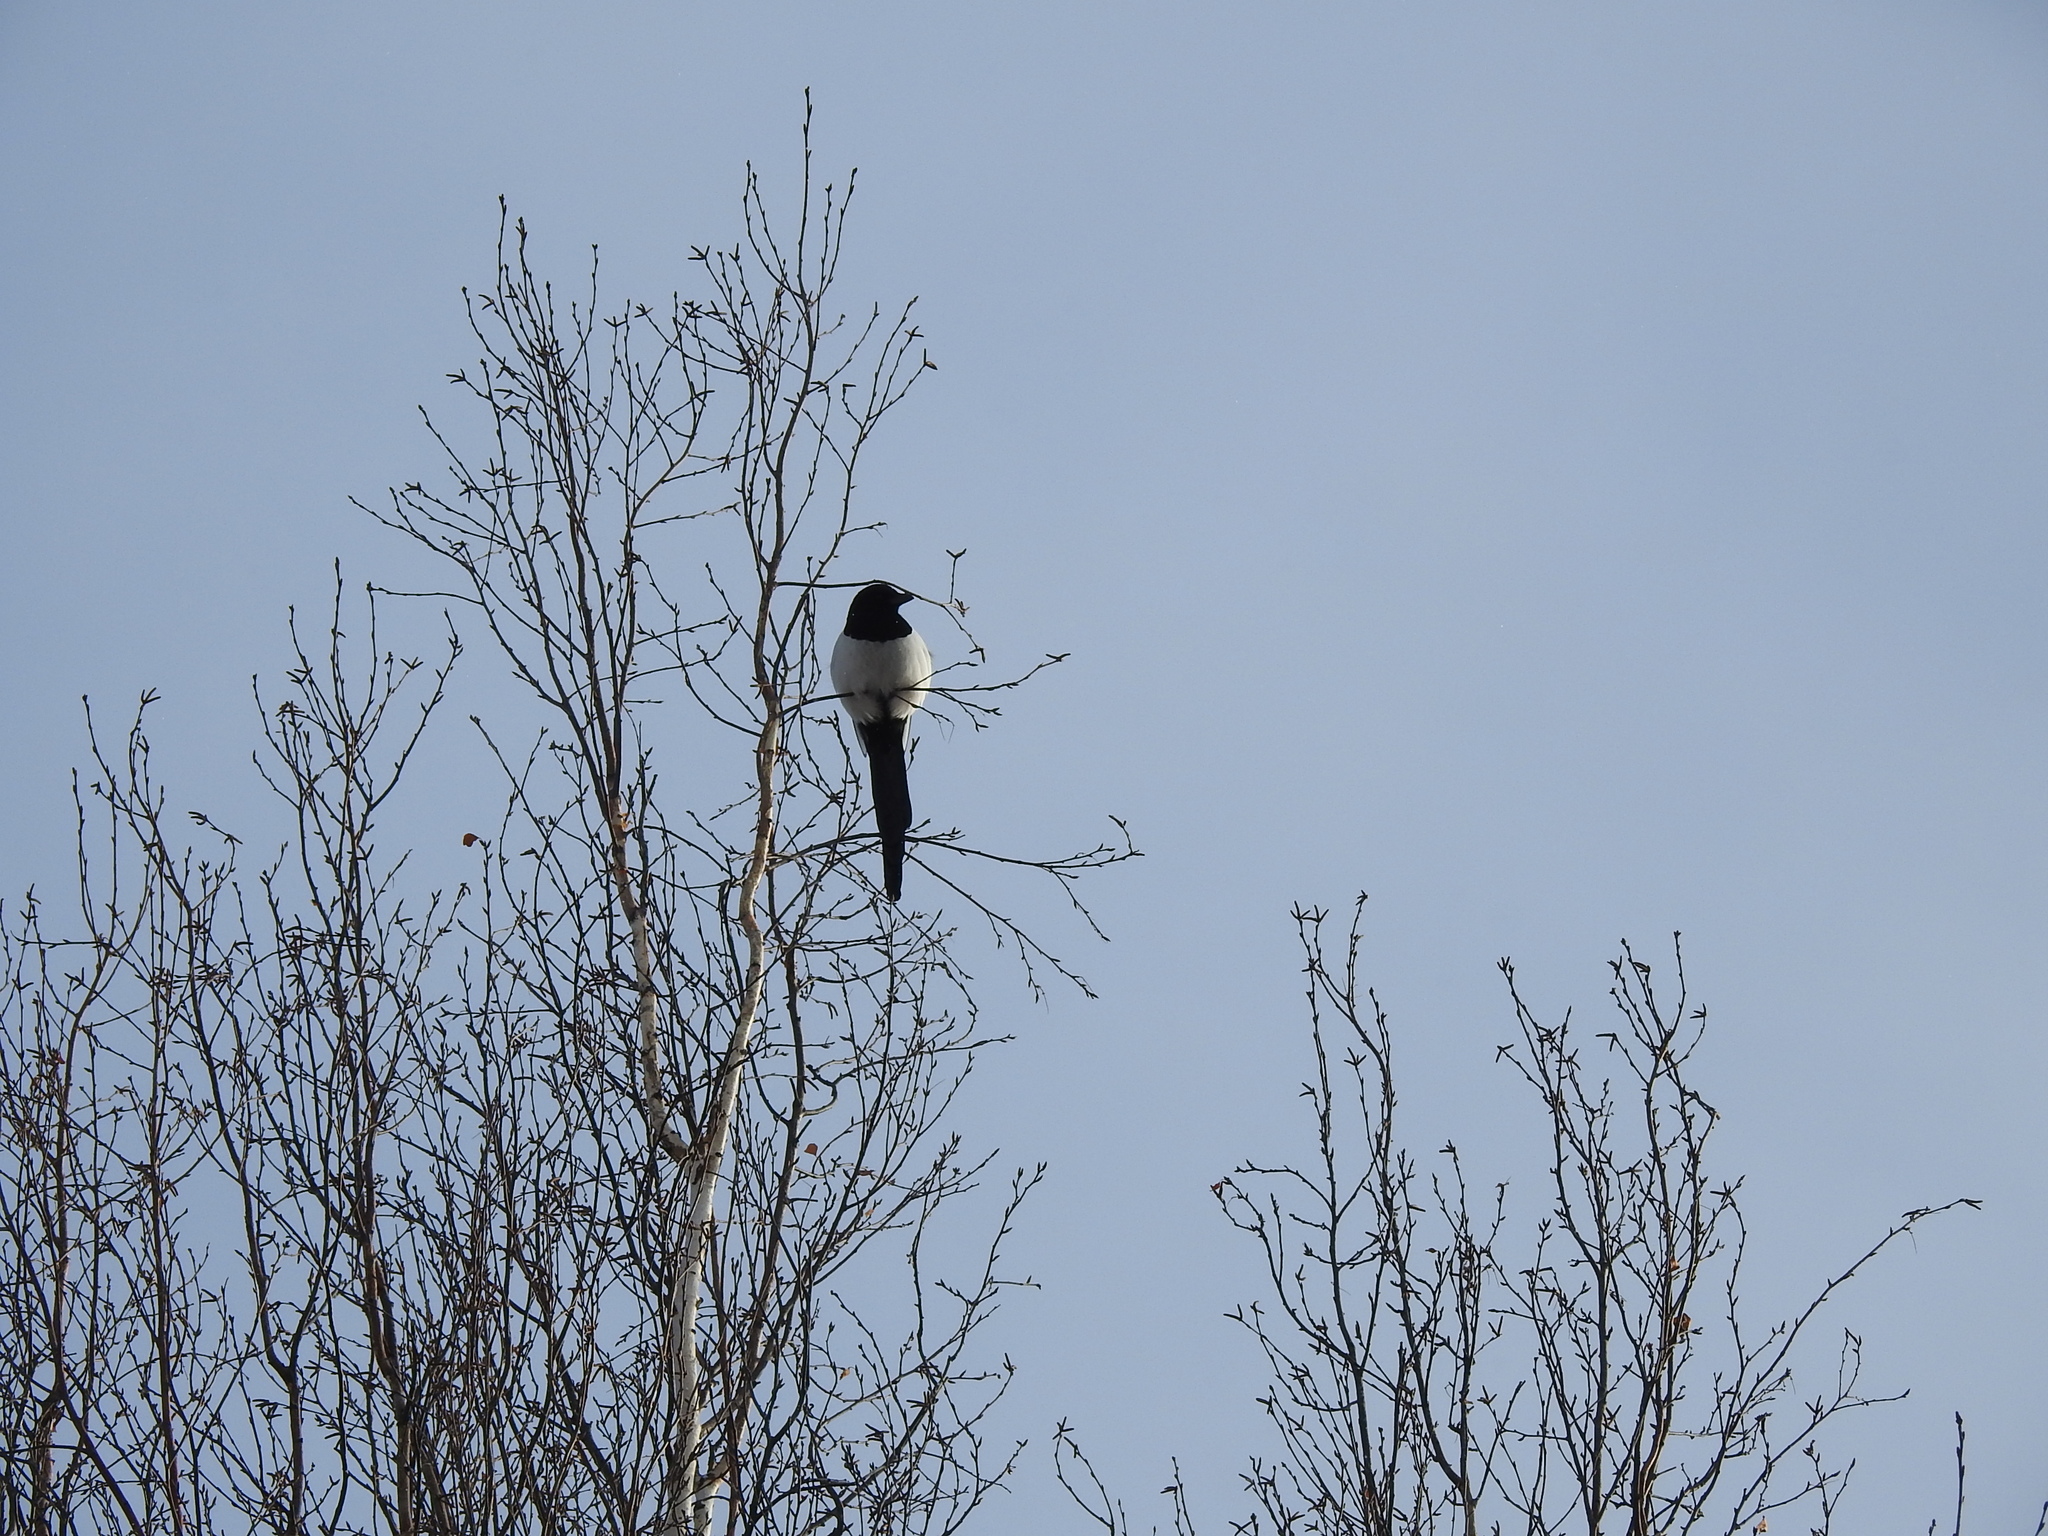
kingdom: Animalia
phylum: Chordata
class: Aves
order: Passeriformes
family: Corvidae
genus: Pica
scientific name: Pica pica
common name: Eurasian magpie
